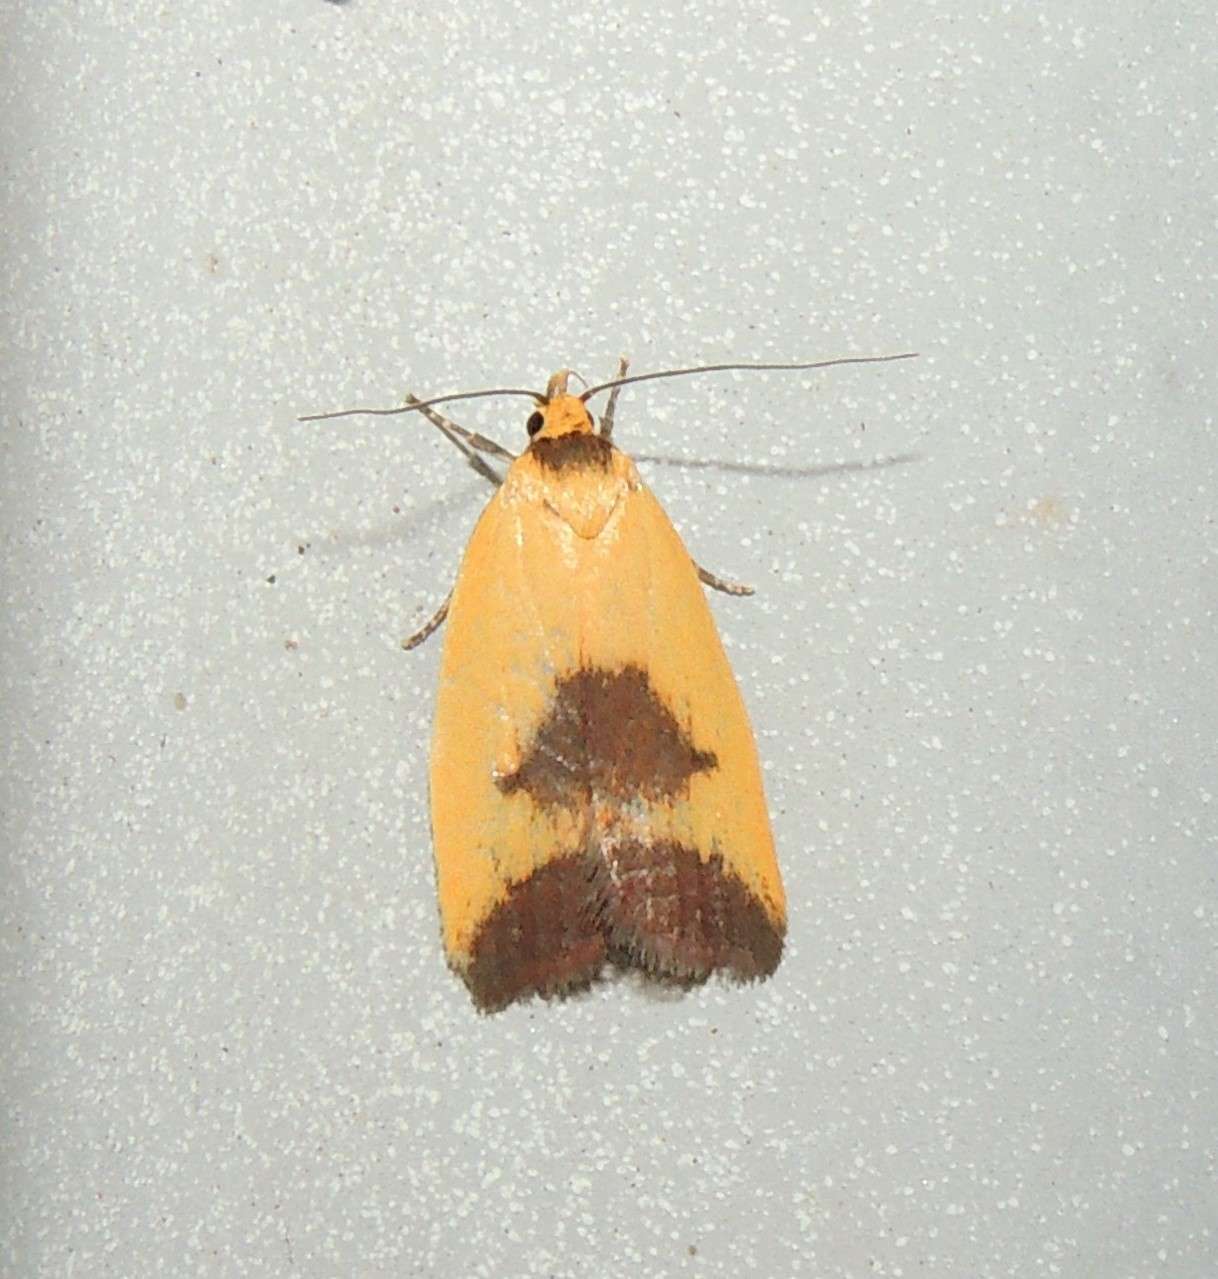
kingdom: Animalia
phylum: Arthropoda
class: Insecta
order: Lepidoptera
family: Oecophoridae
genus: Ageletha
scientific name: Ageletha hemiteles
